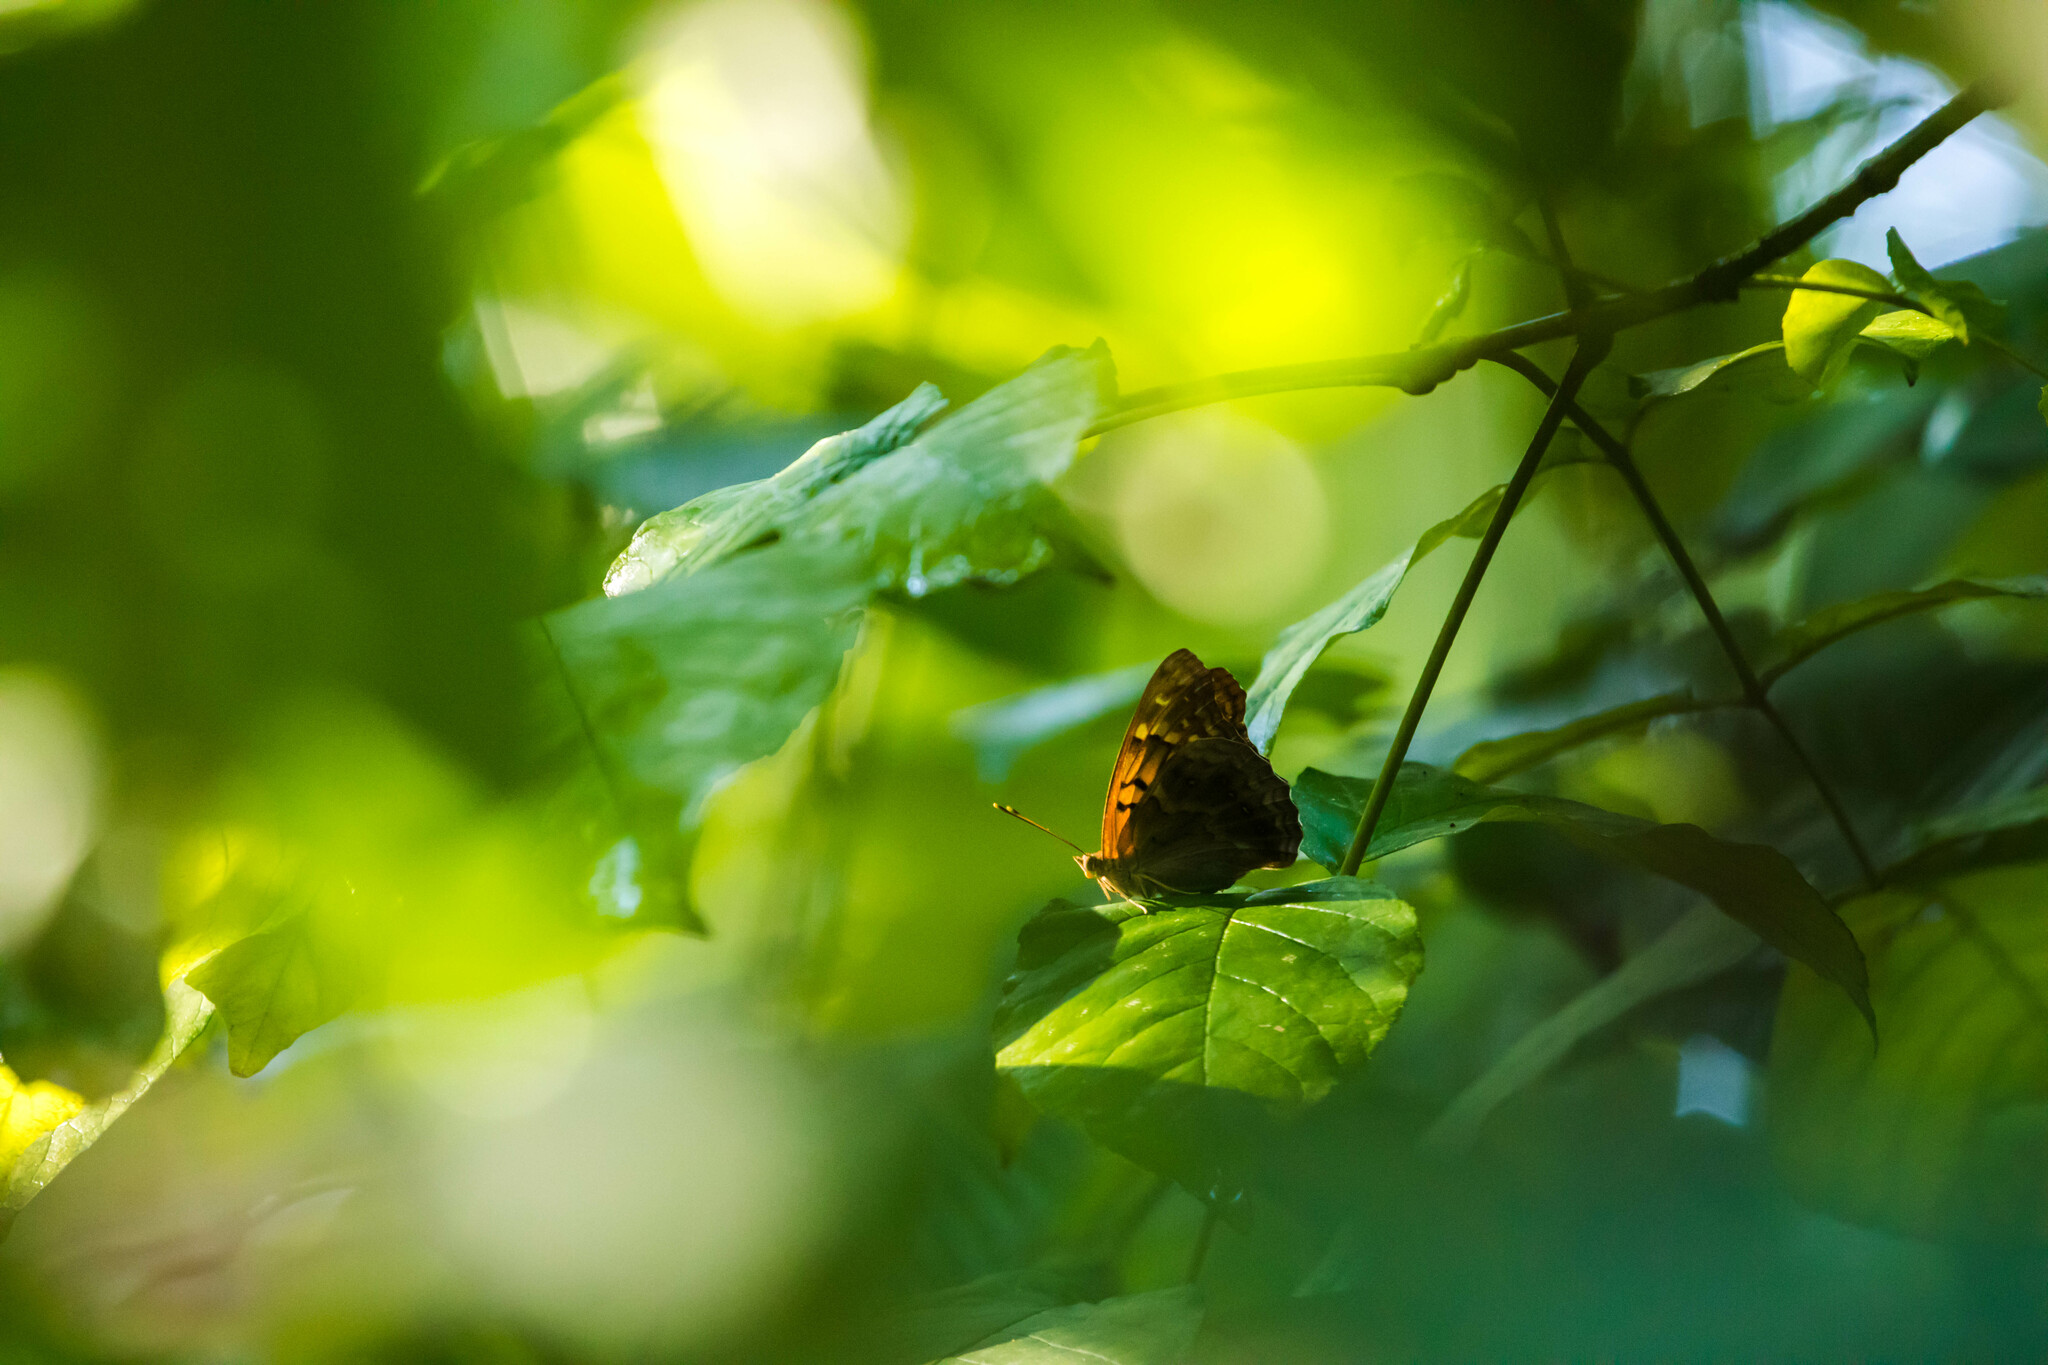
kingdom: Animalia
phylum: Arthropoda
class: Insecta
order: Lepidoptera
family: Nymphalidae
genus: Asterocampa
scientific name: Asterocampa clyton
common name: Tawny emperor
